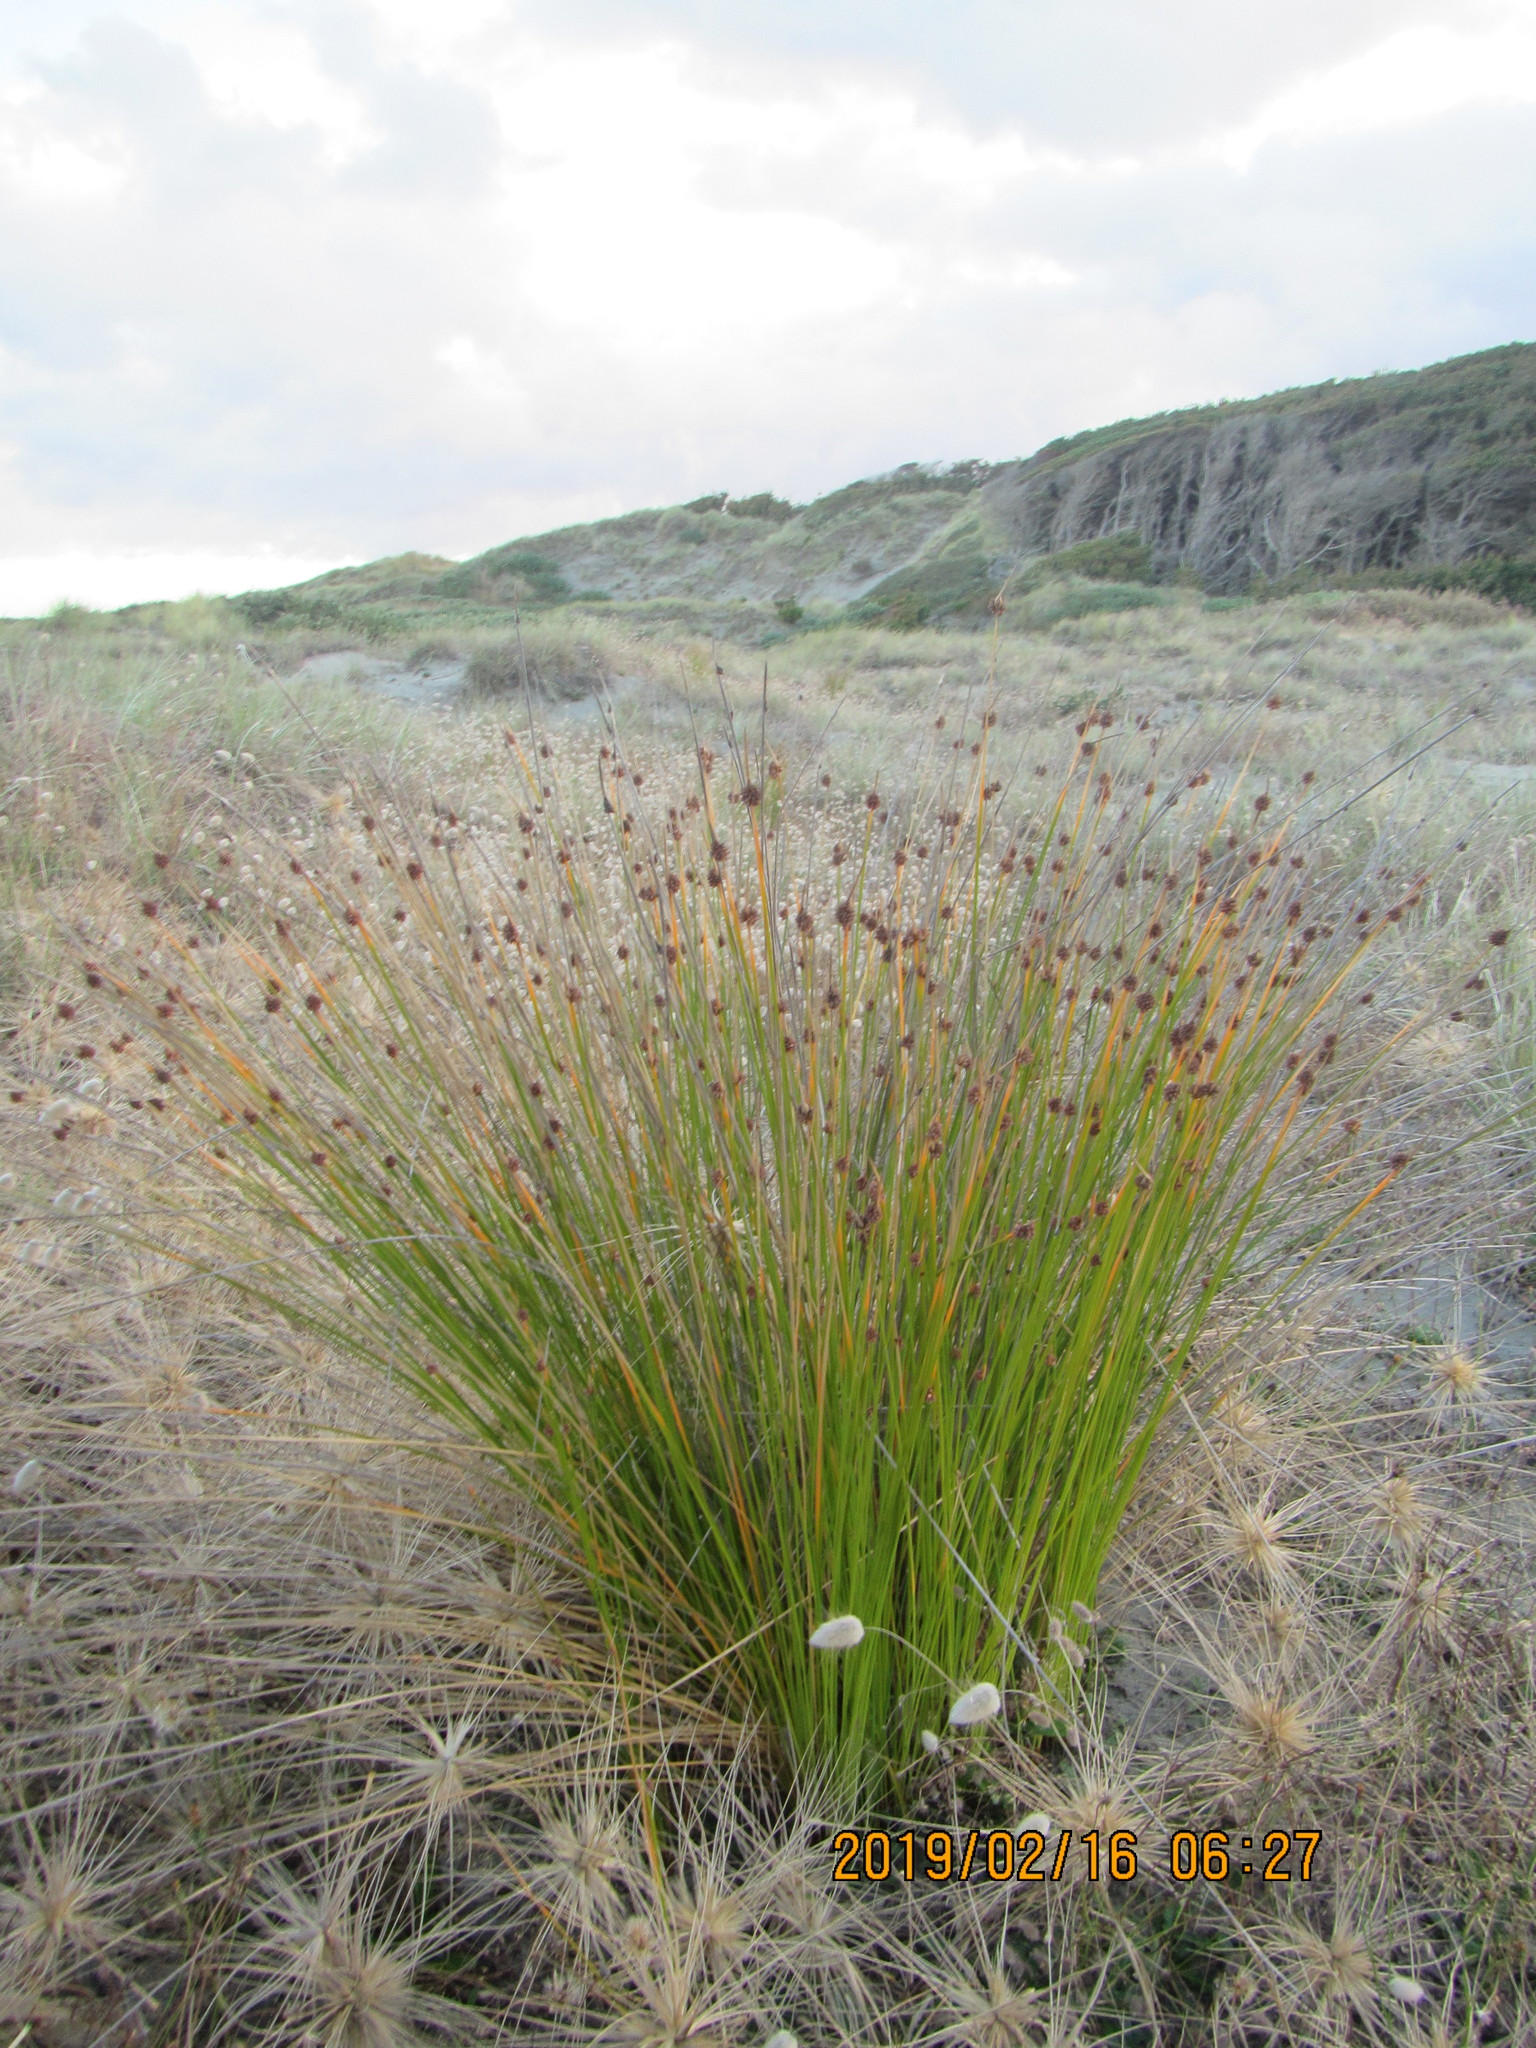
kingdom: Plantae
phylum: Tracheophyta
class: Liliopsida
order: Poales
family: Cyperaceae
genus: Ficinia
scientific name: Ficinia nodosa
